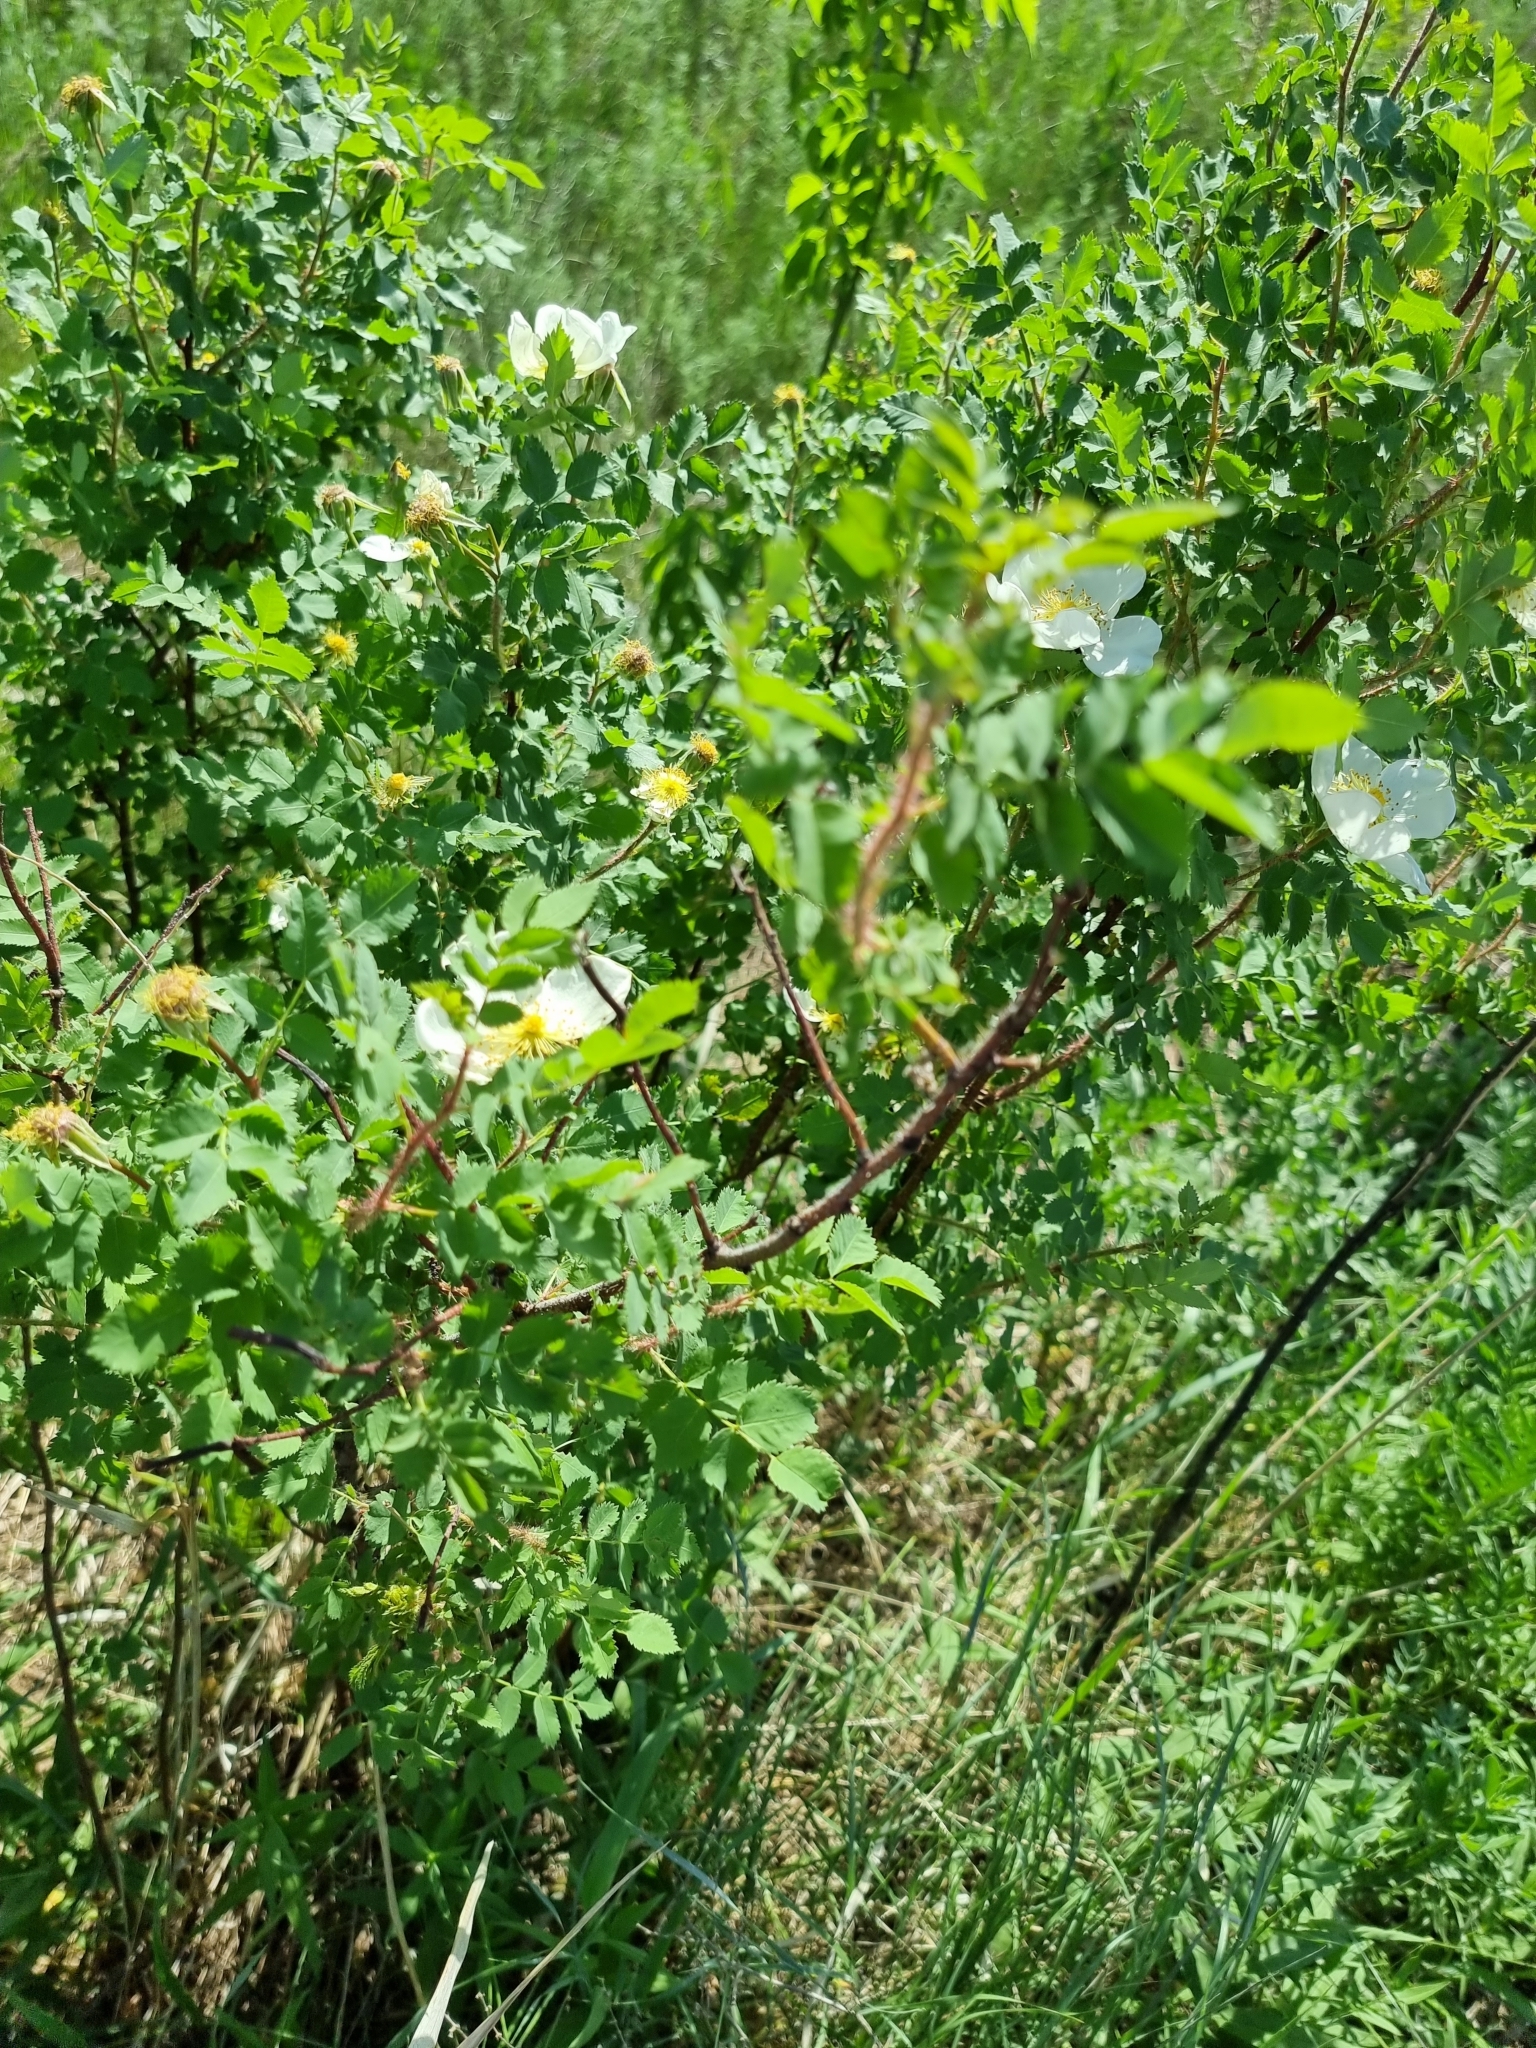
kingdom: Plantae
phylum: Tracheophyta
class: Magnoliopsida
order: Rosales
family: Rosaceae
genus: Rosa
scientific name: Rosa spinosissima
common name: Burnet rose
